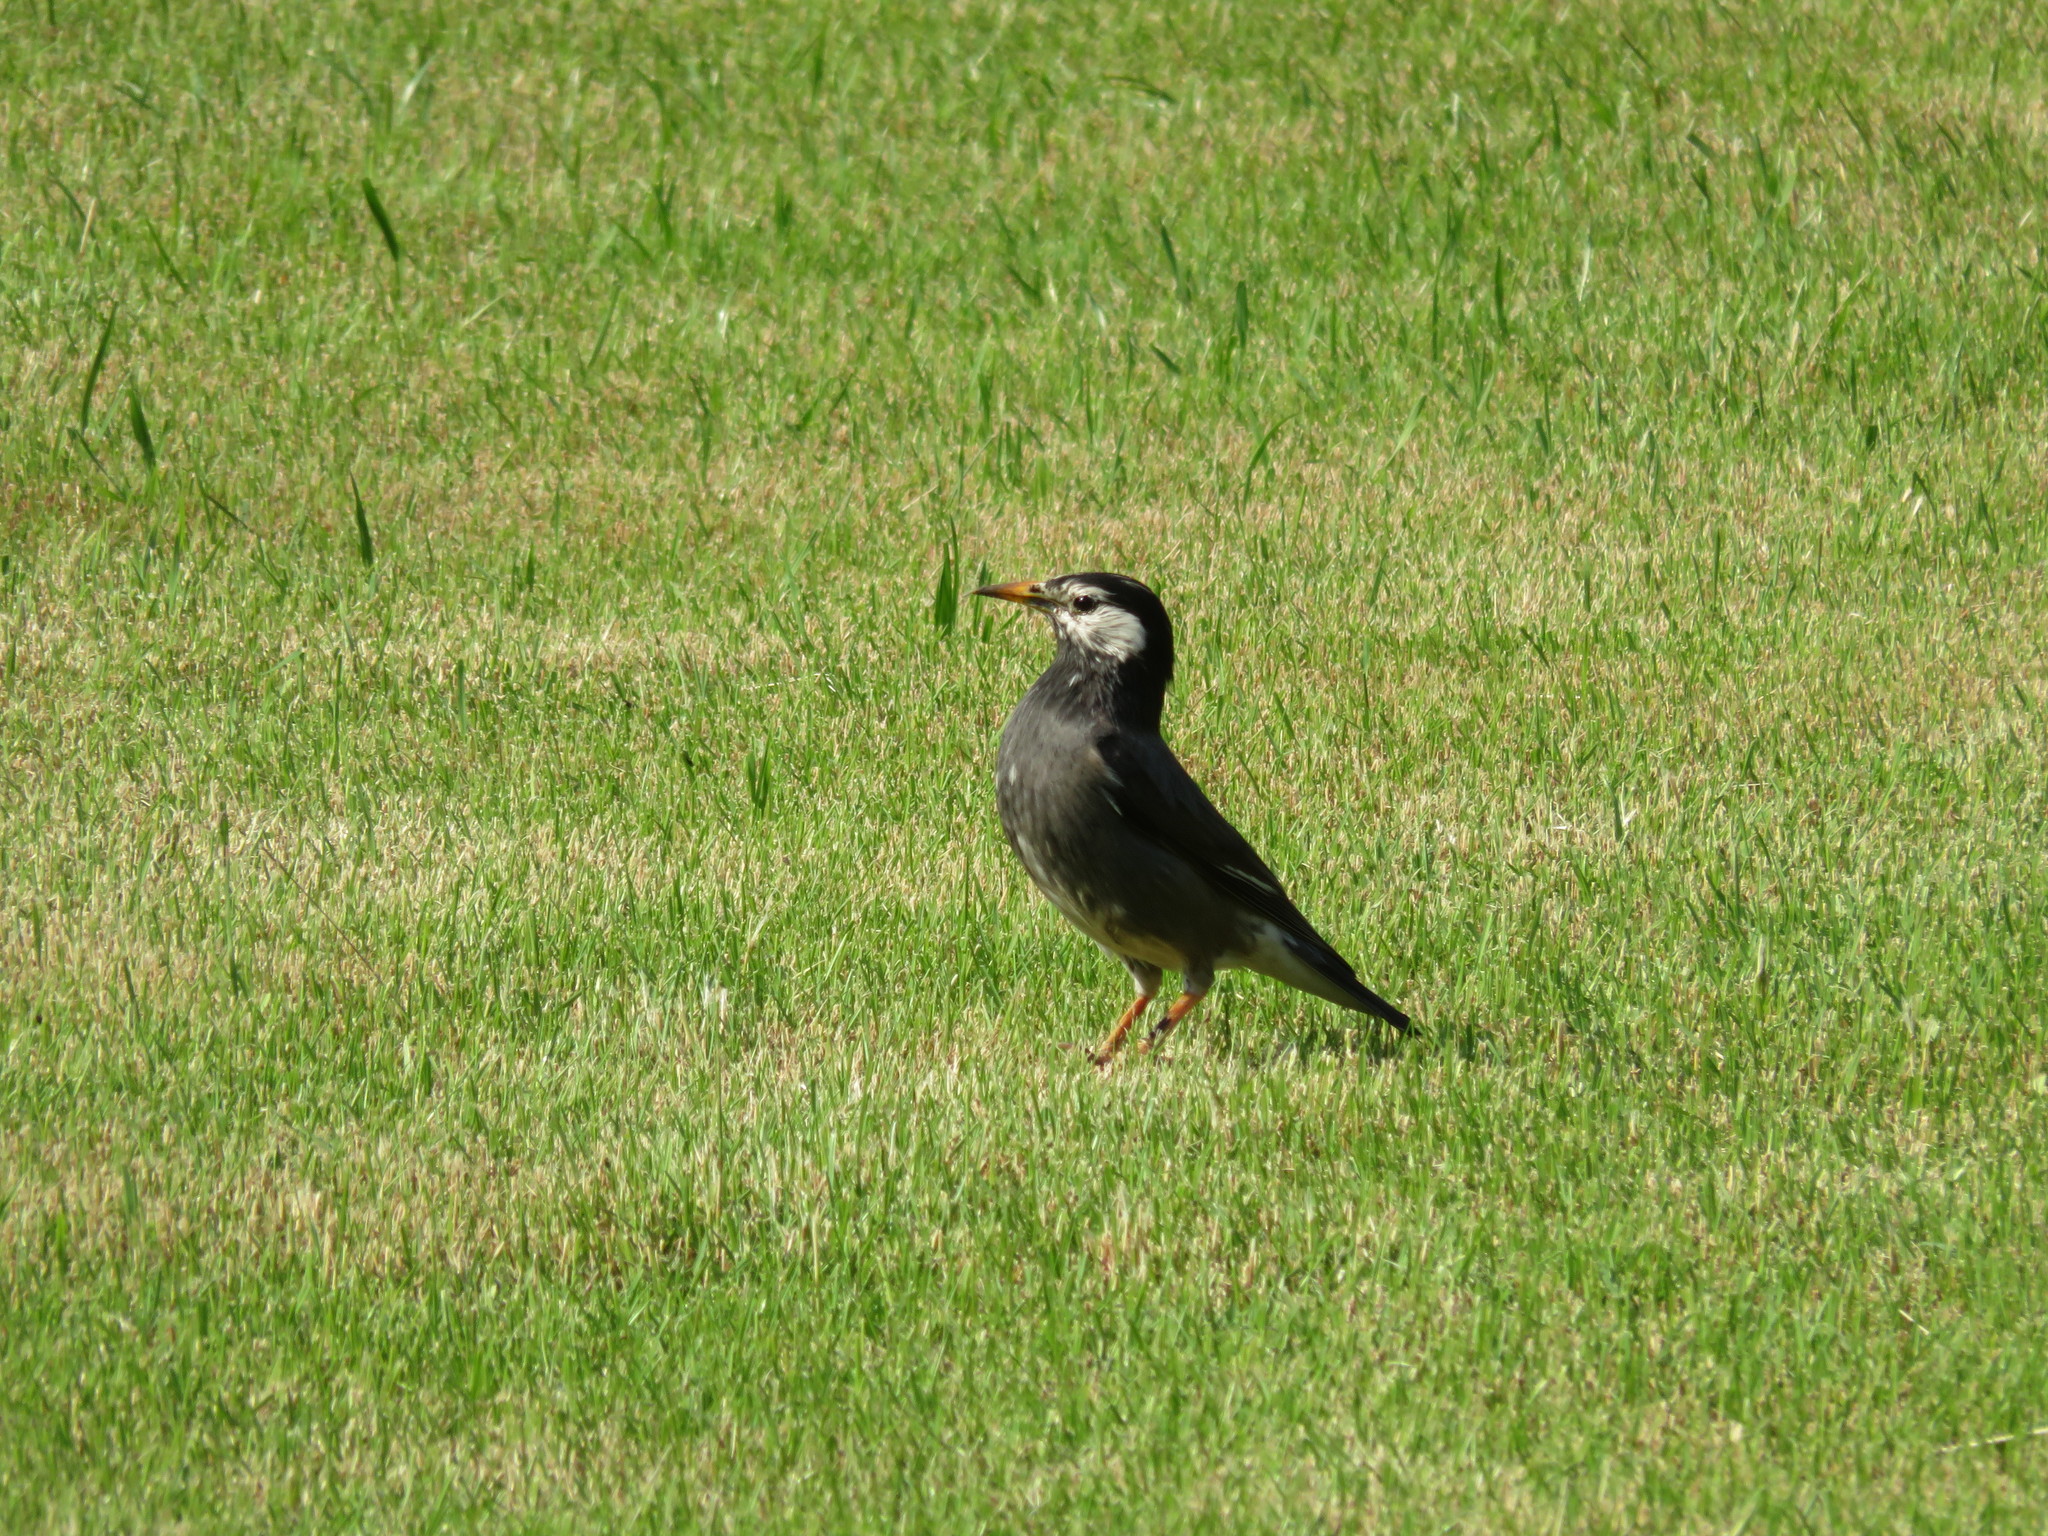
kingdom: Animalia
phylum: Chordata
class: Aves
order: Passeriformes
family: Sturnidae
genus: Spodiopsar
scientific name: Spodiopsar cineraceus
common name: White-cheeked starling
